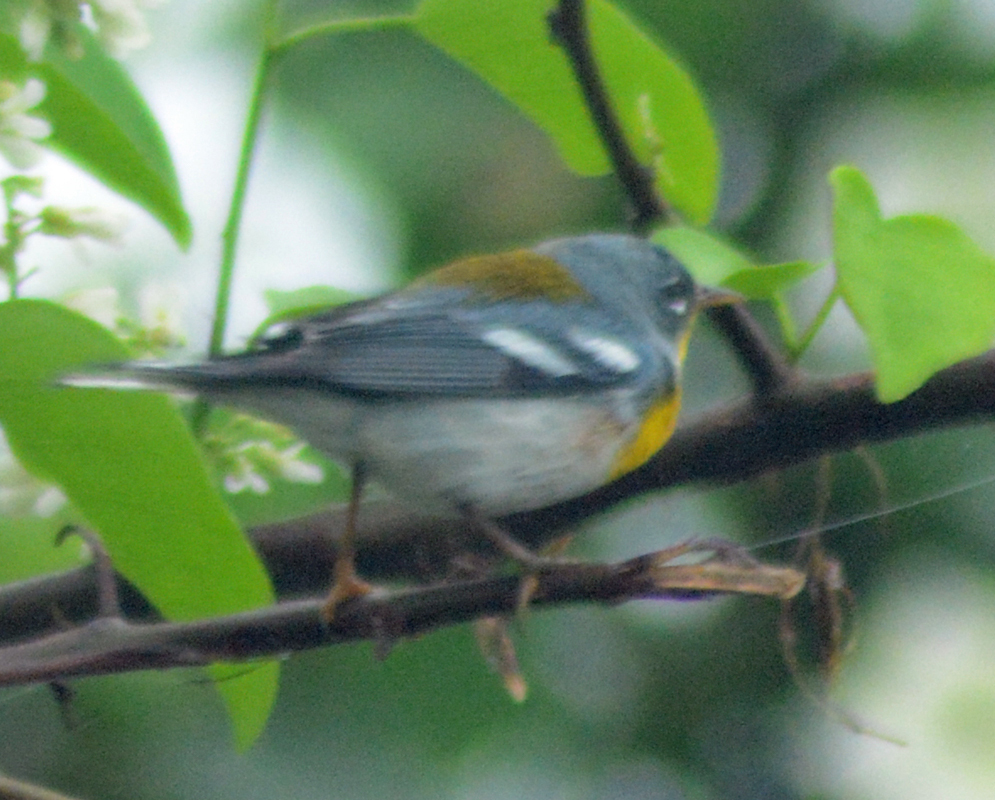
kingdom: Animalia
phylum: Chordata
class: Aves
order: Passeriformes
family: Parulidae
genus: Setophaga
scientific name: Setophaga americana
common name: Northern parula
